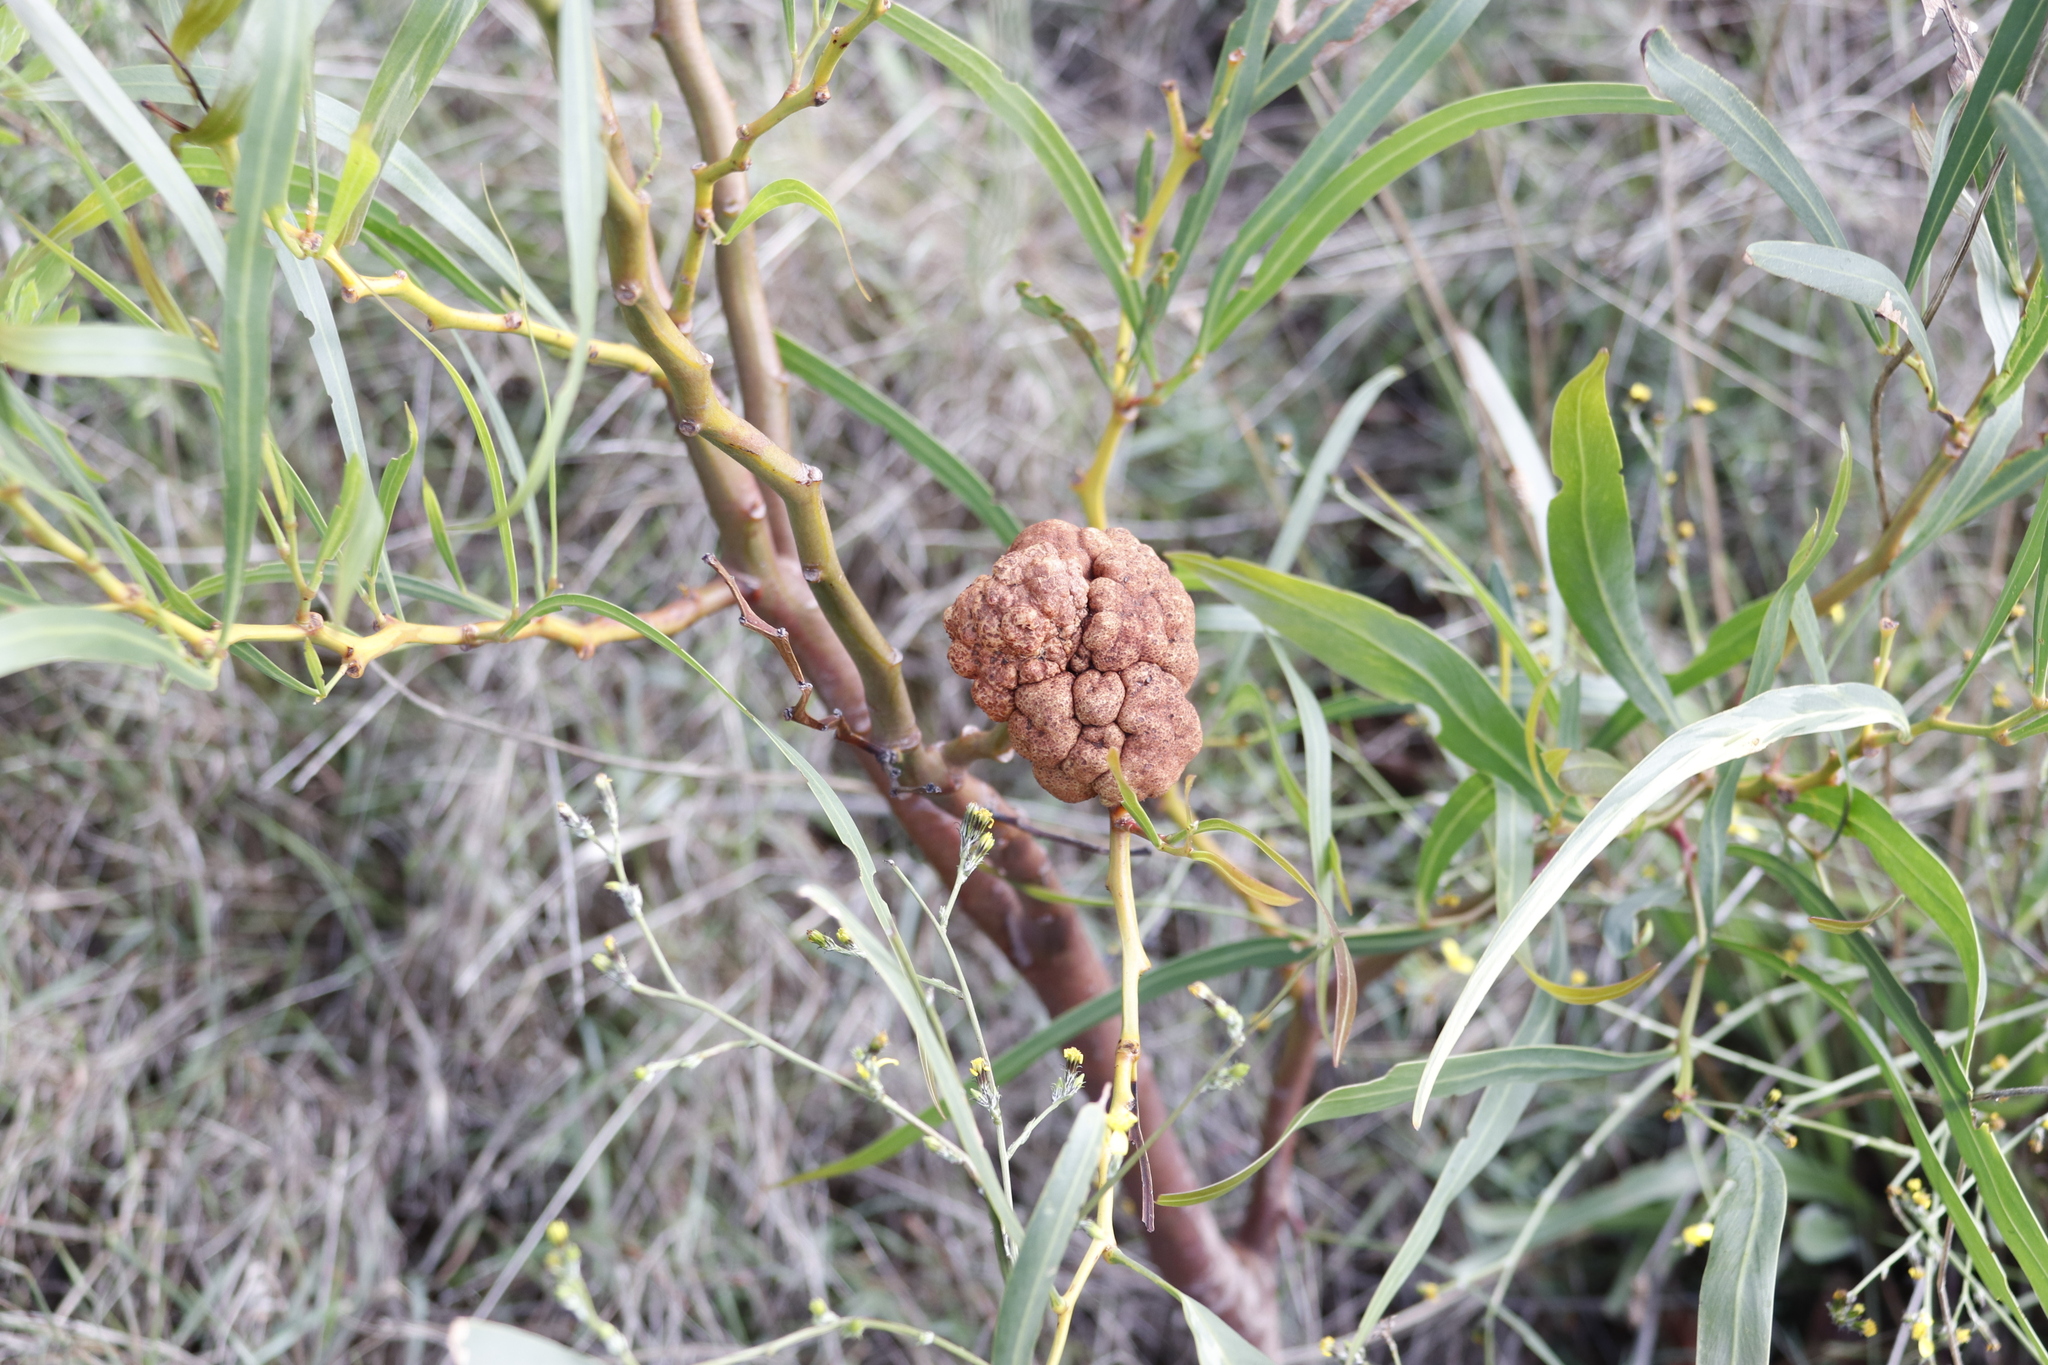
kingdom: Fungi
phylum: Basidiomycota
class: Pucciniomycetes
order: Pucciniales
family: Uromycladiaceae
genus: Uromycladium
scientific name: Uromycladium morrisii
